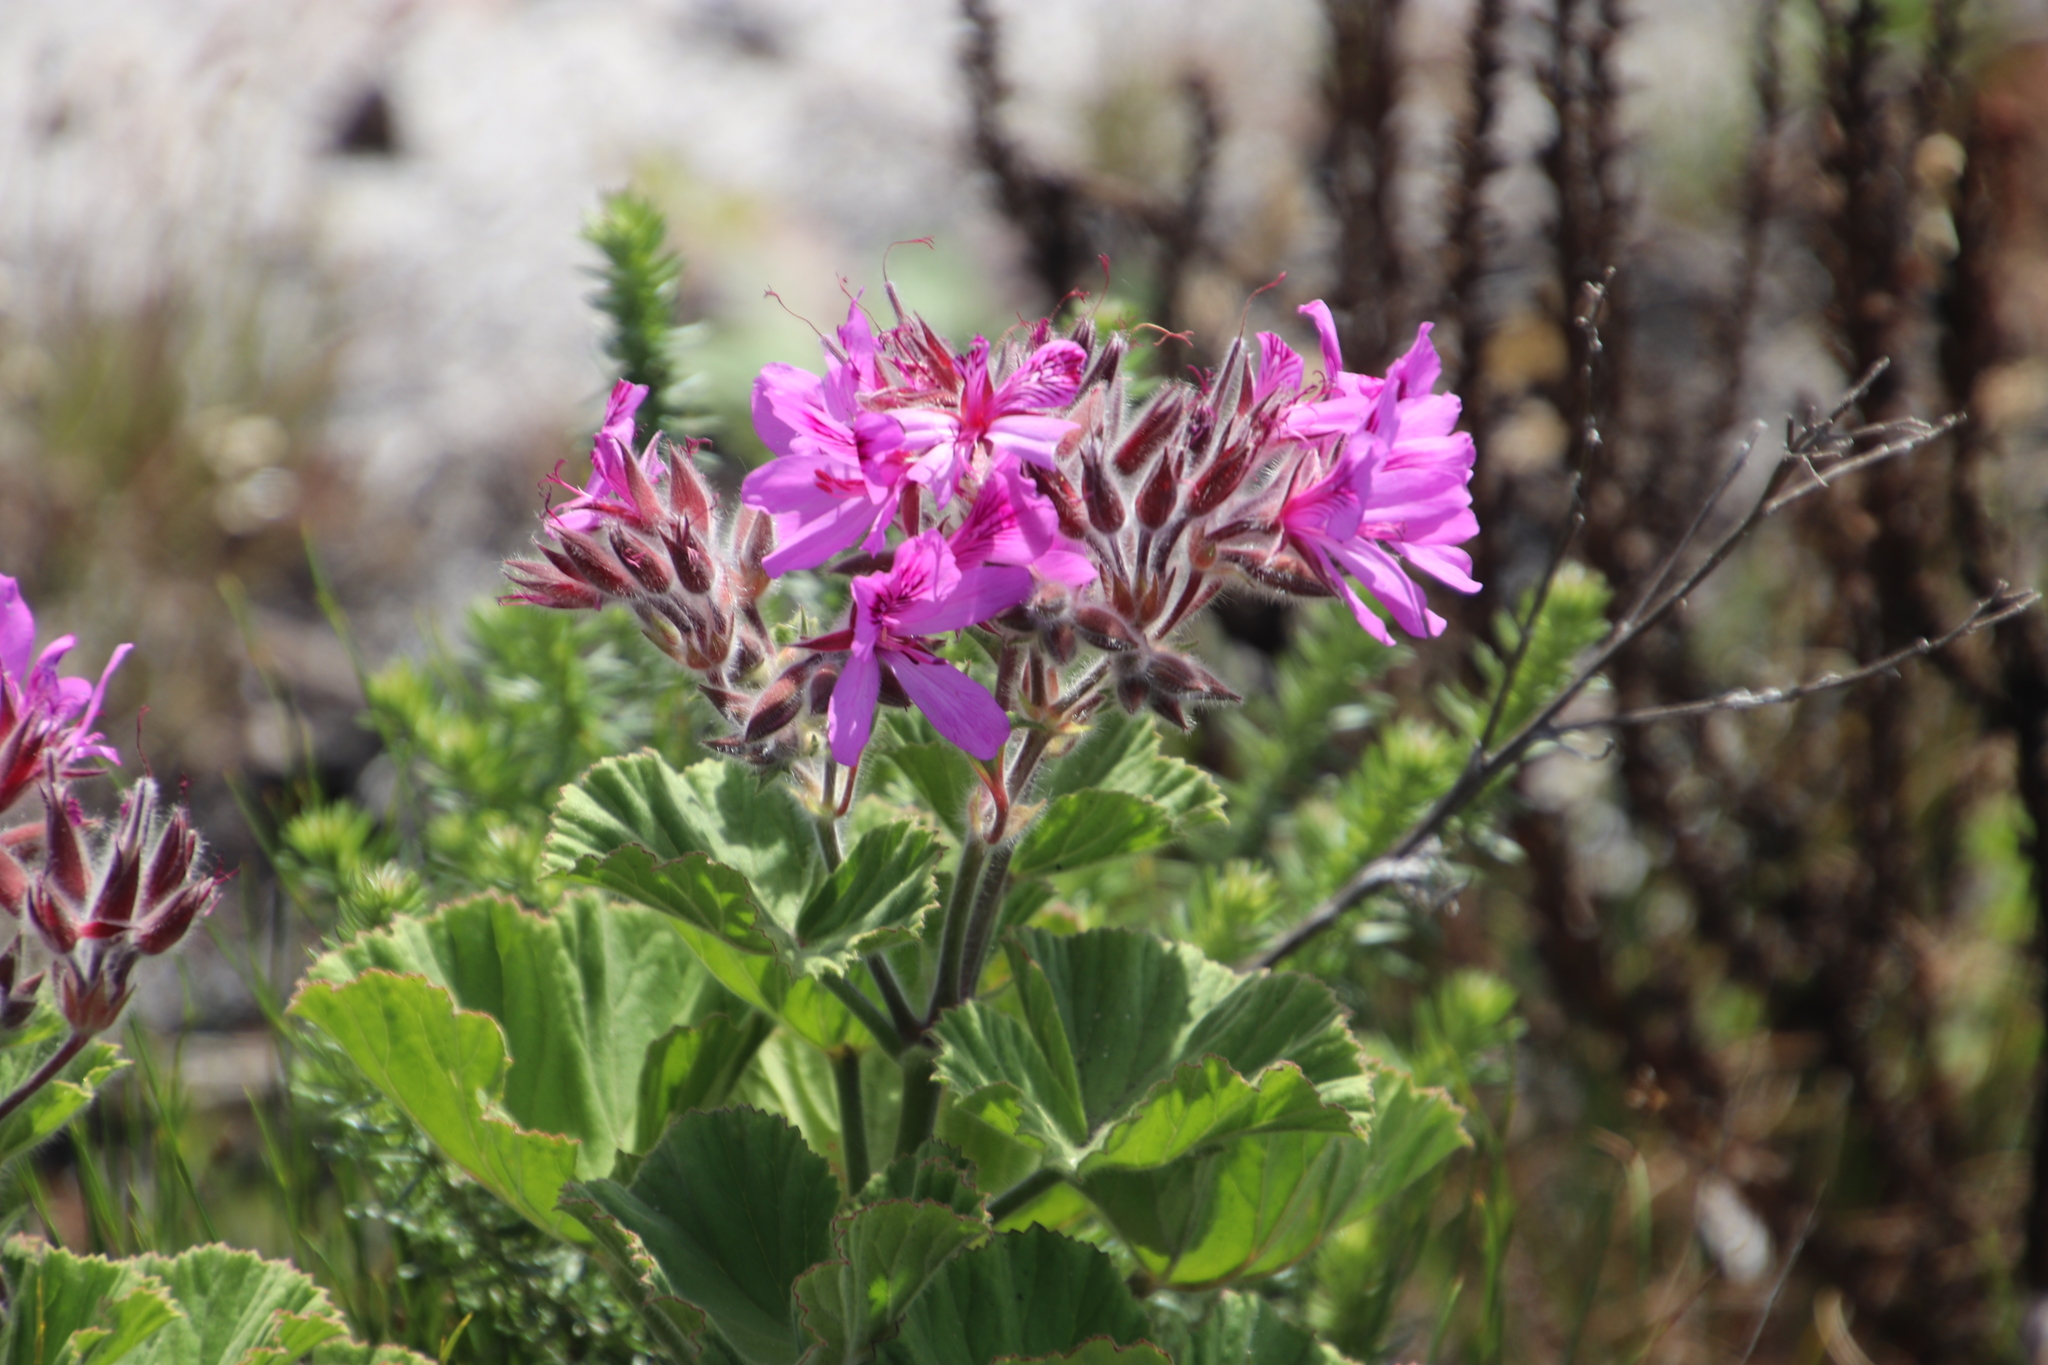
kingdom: Plantae
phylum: Tracheophyta
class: Magnoliopsida
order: Geraniales
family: Geraniaceae
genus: Pelargonium
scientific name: Pelargonium cucullatum
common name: Tree pelargonium
